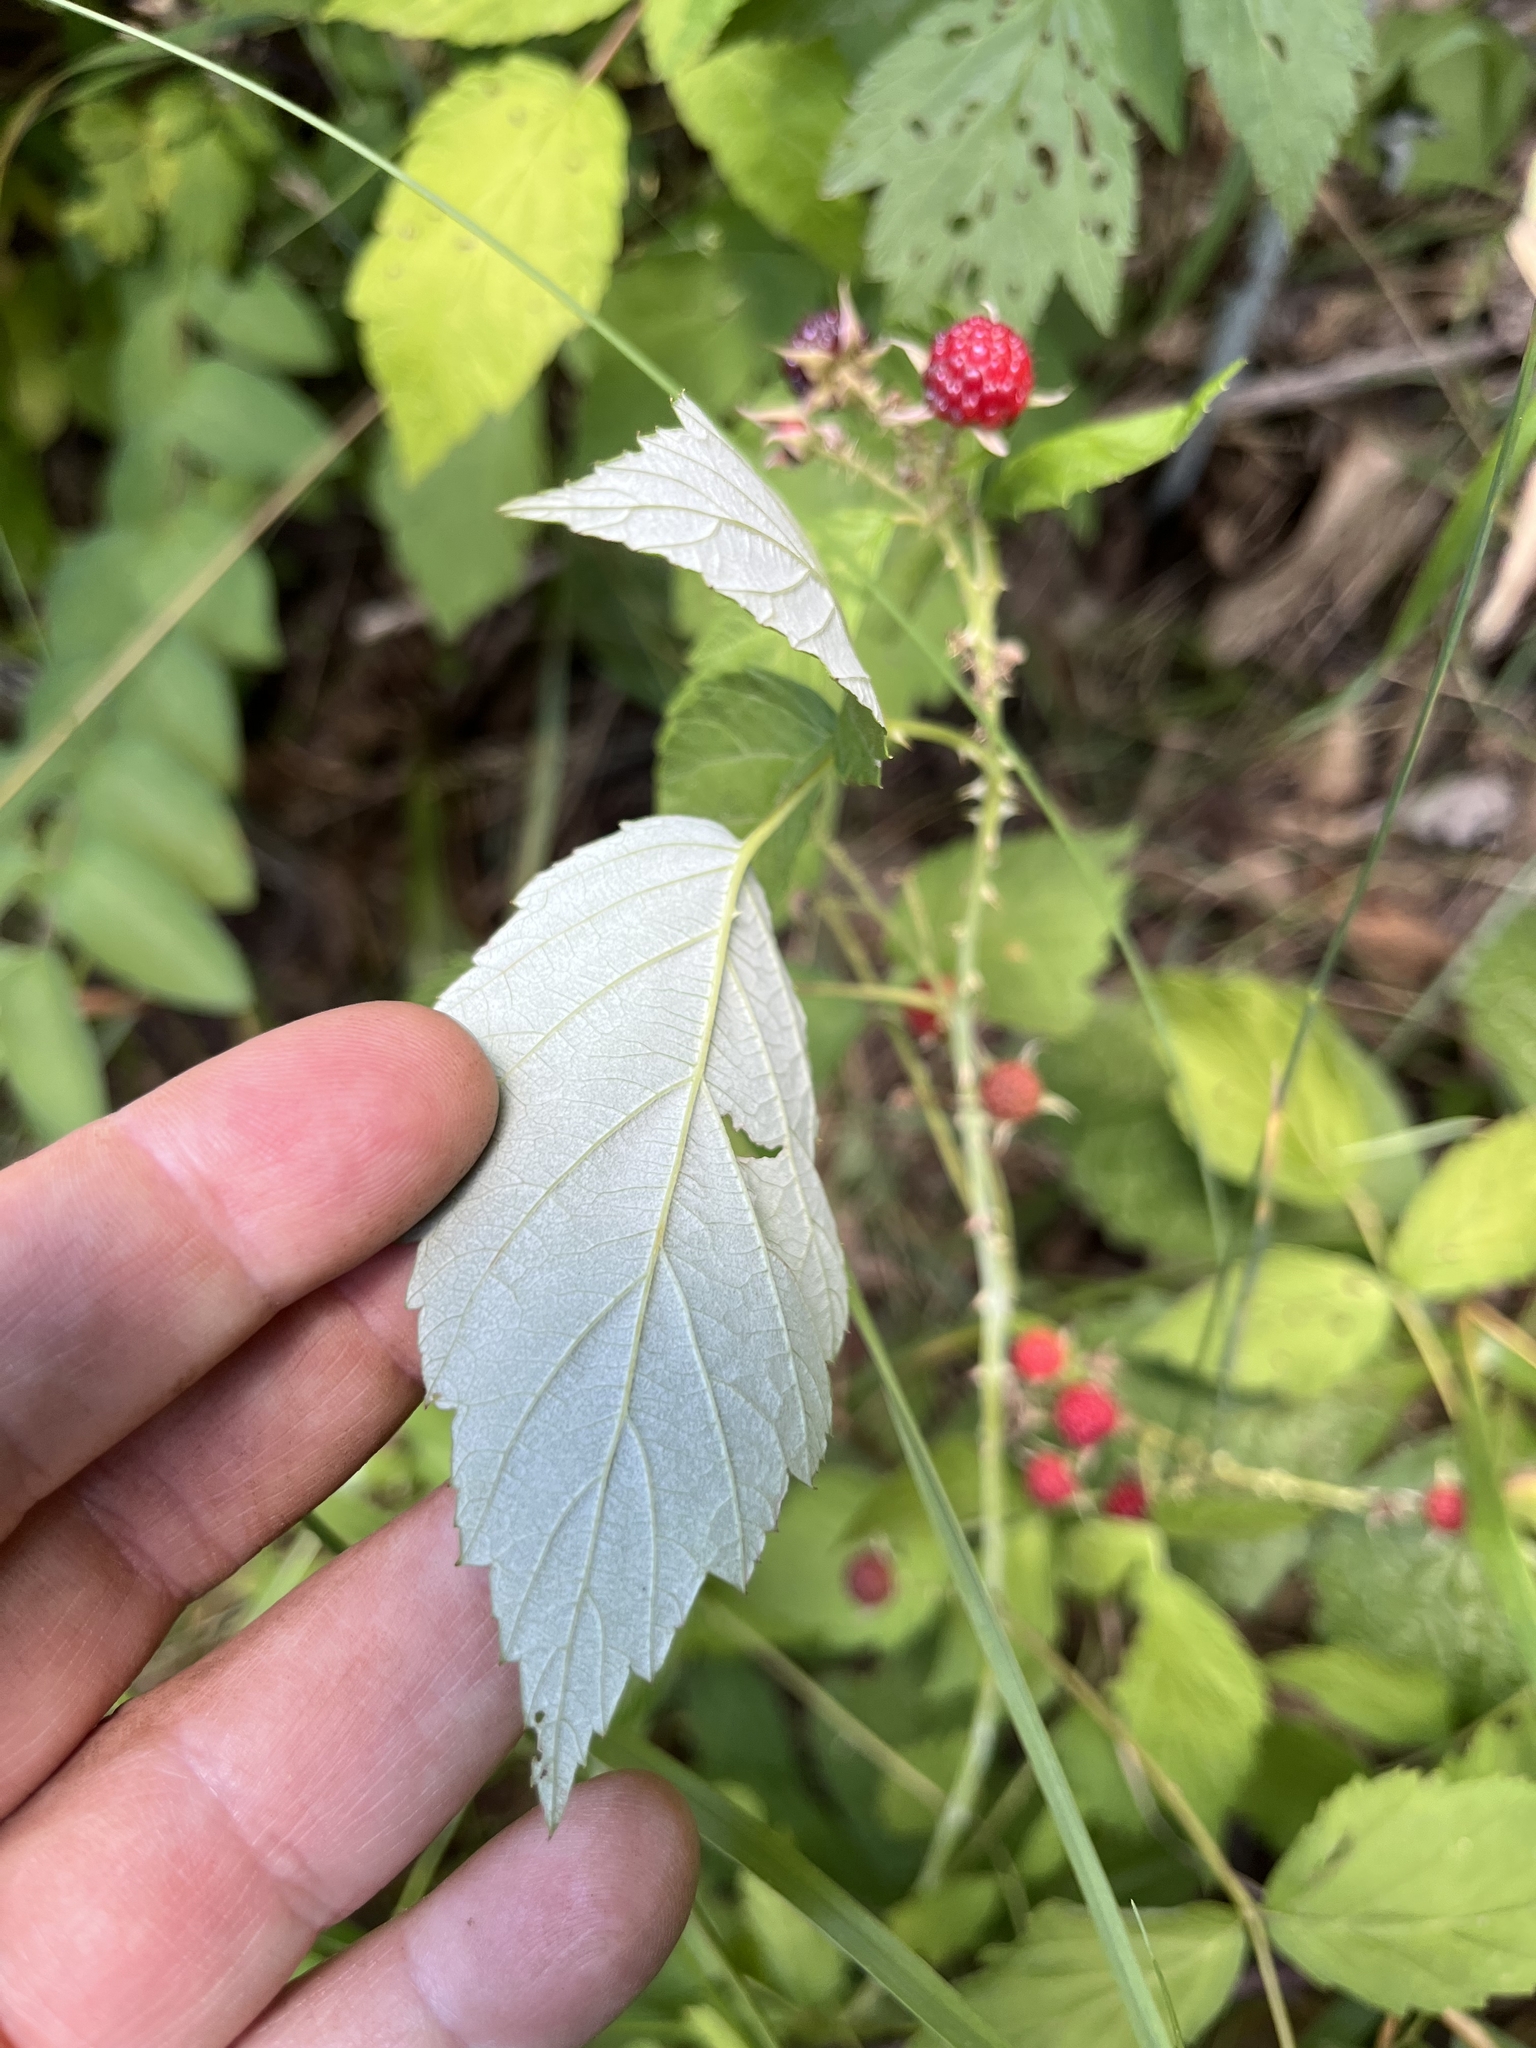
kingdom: Plantae
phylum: Tracheophyta
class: Magnoliopsida
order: Rosales
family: Rosaceae
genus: Rubus
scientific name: Rubus occidentalis
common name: Black raspberry
